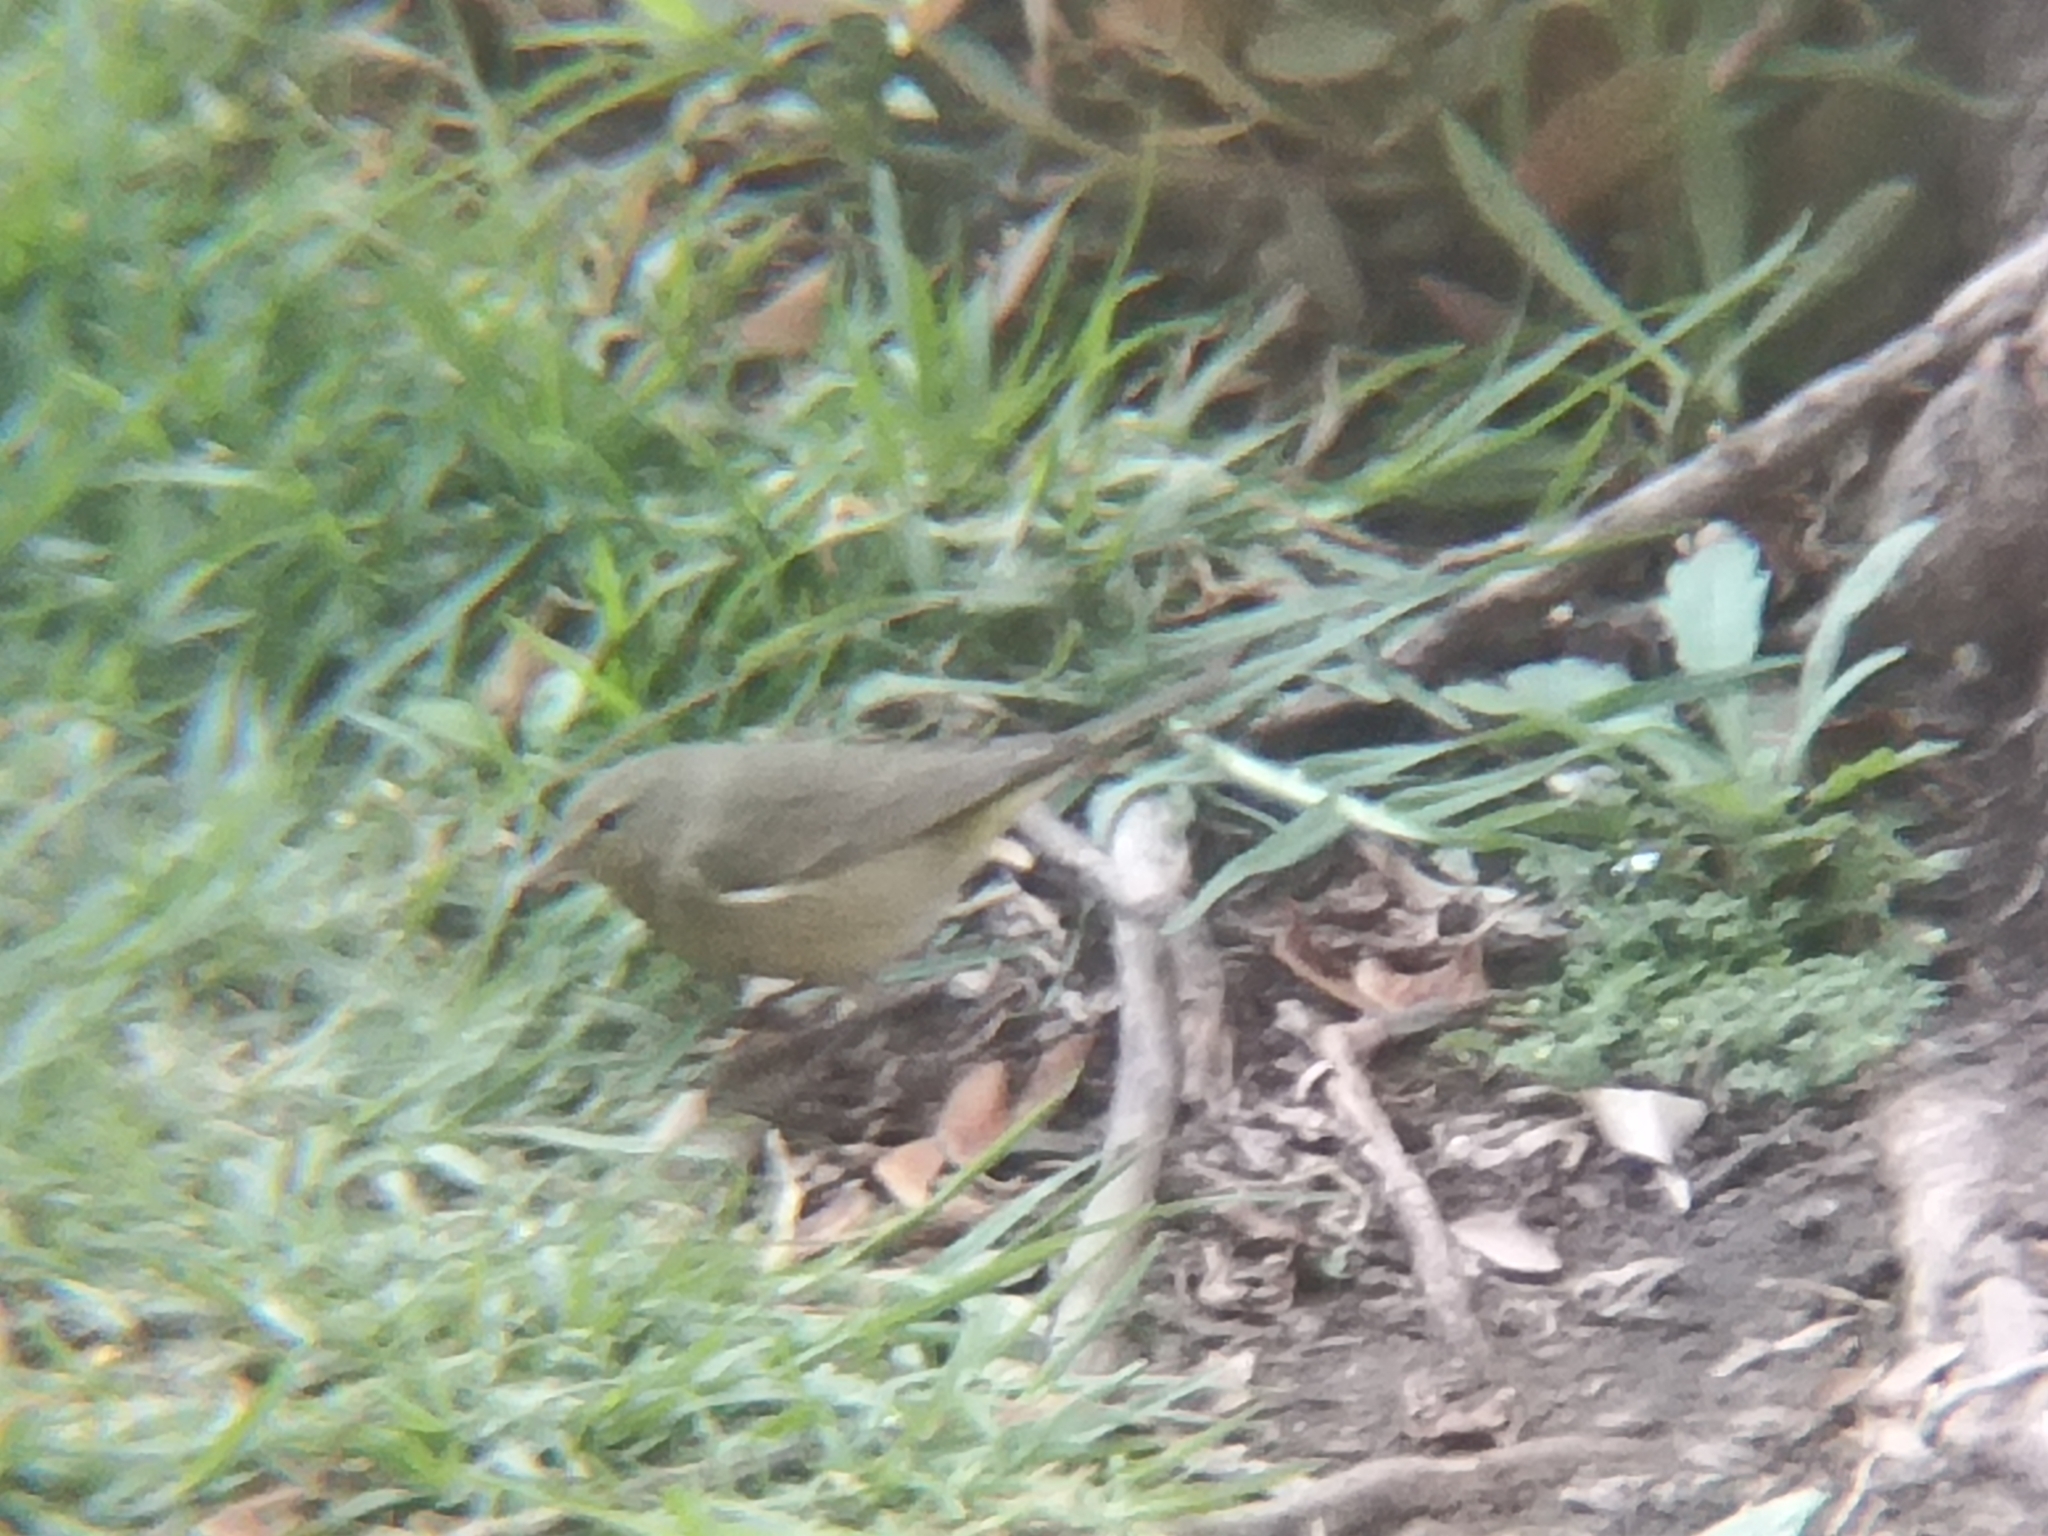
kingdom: Animalia
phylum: Chordata
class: Aves
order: Passeriformes
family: Parulidae
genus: Leiothlypis
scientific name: Leiothlypis celata
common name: Orange-crowned warbler
